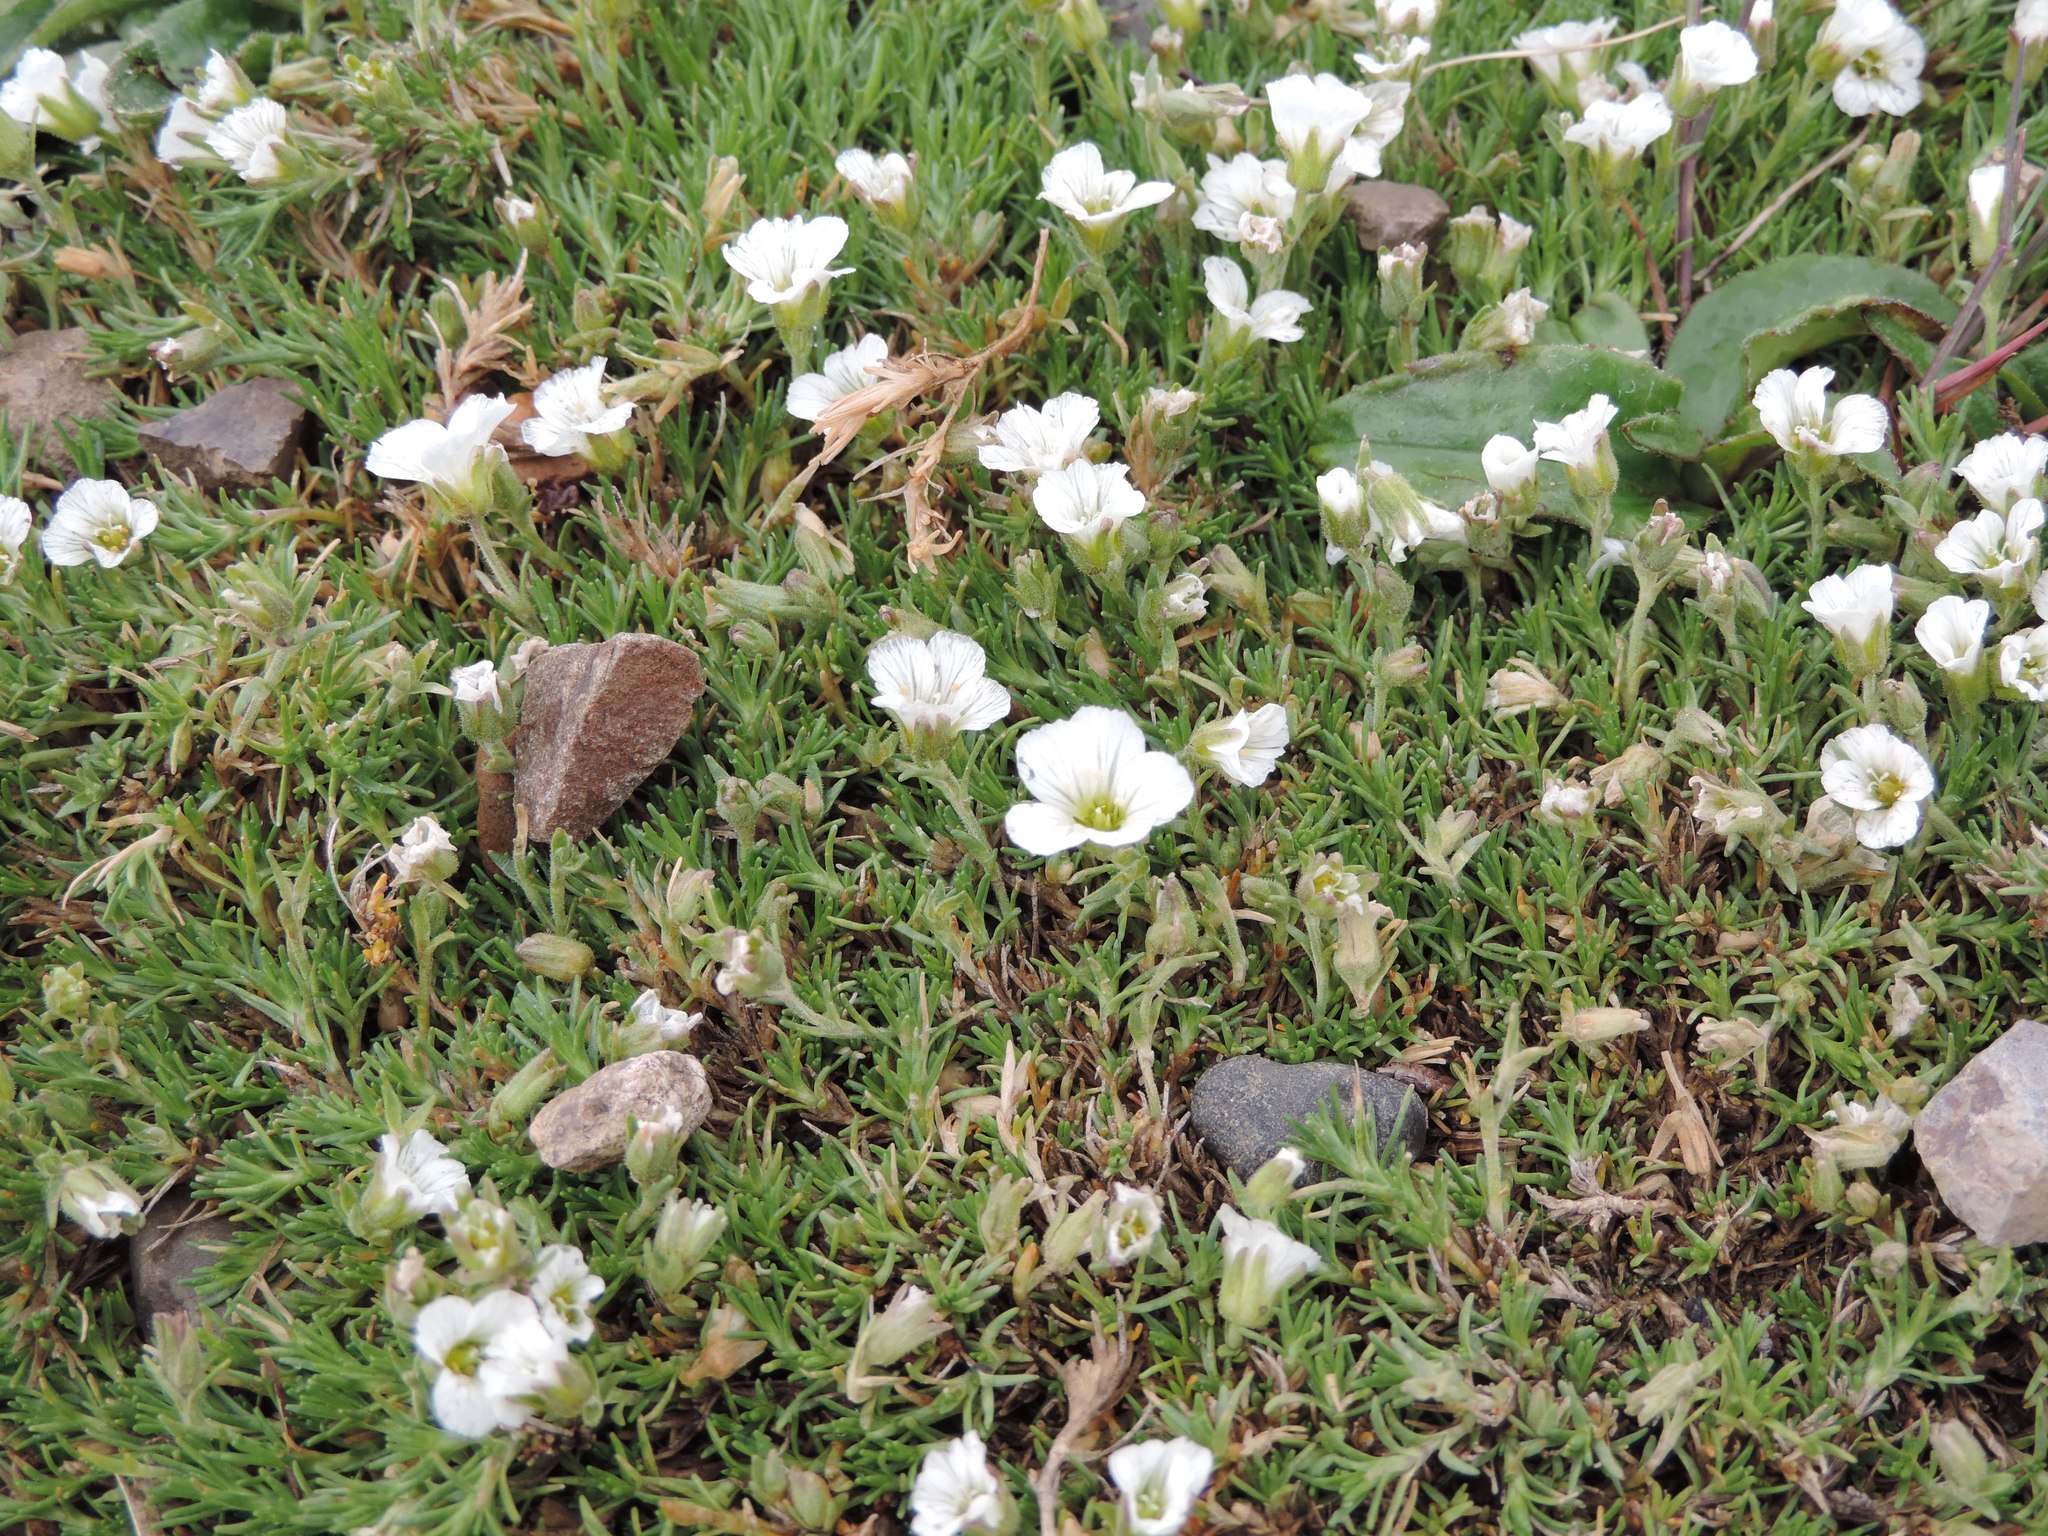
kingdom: Plantae
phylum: Tracheophyta
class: Magnoliopsida
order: Caryophyllales
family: Caryophyllaceae
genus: Cherleria
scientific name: Cherleria arctica
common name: Arctic sandwort
